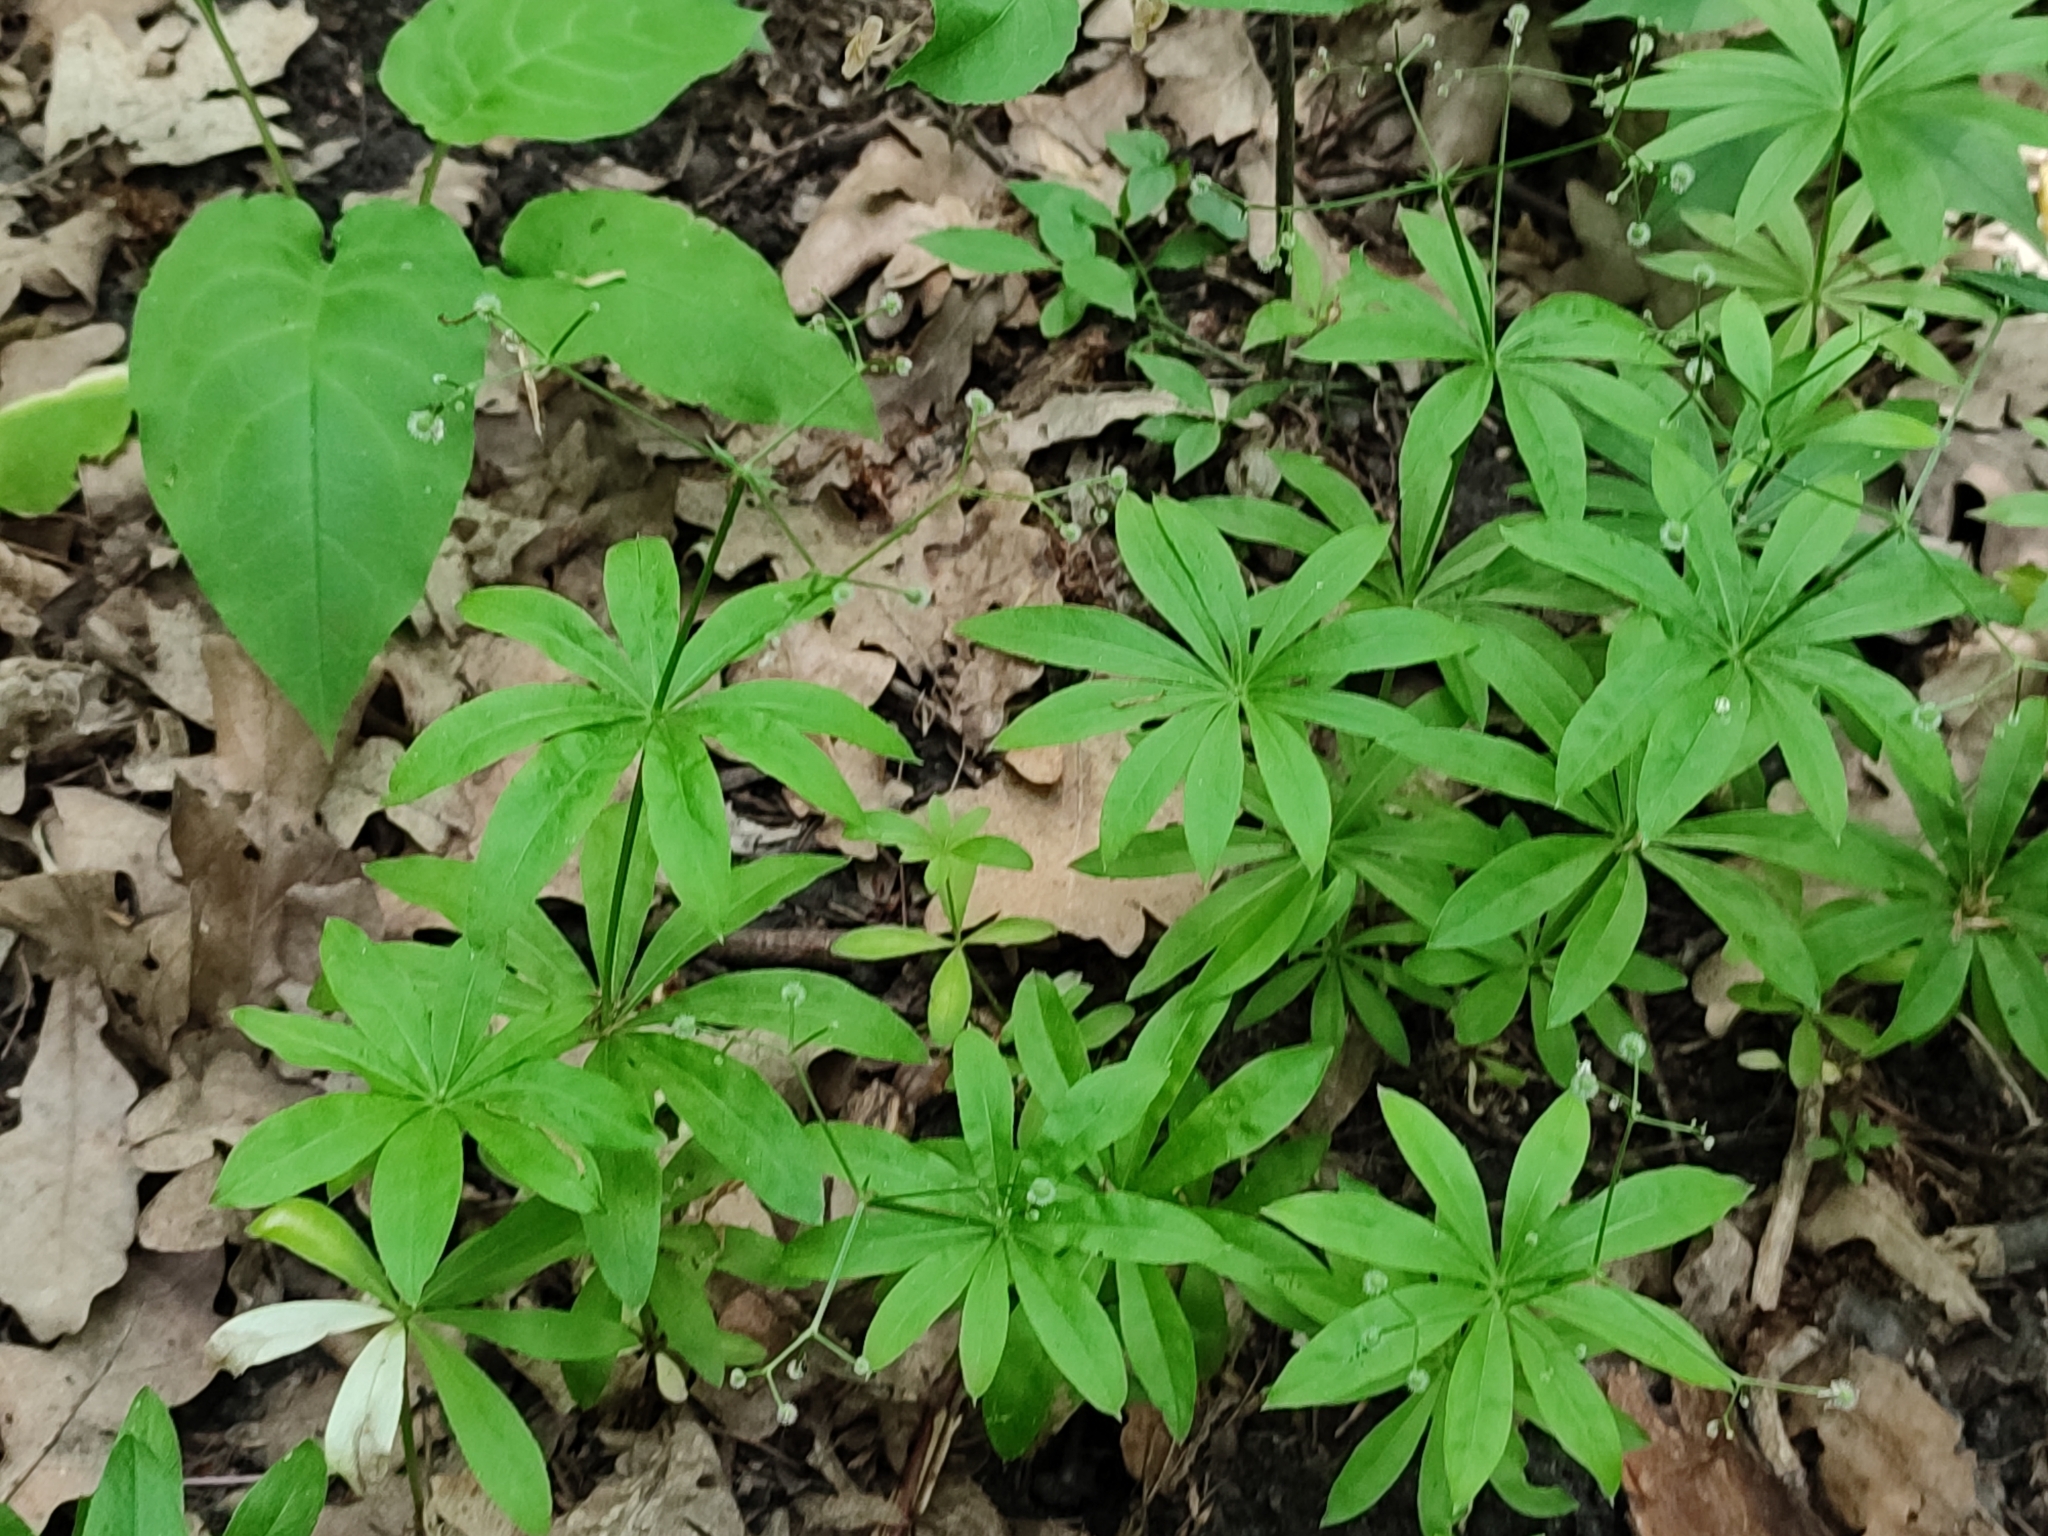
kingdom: Plantae
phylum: Tracheophyta
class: Magnoliopsida
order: Gentianales
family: Rubiaceae
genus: Galium
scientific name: Galium odoratum
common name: Sweet woodruff
